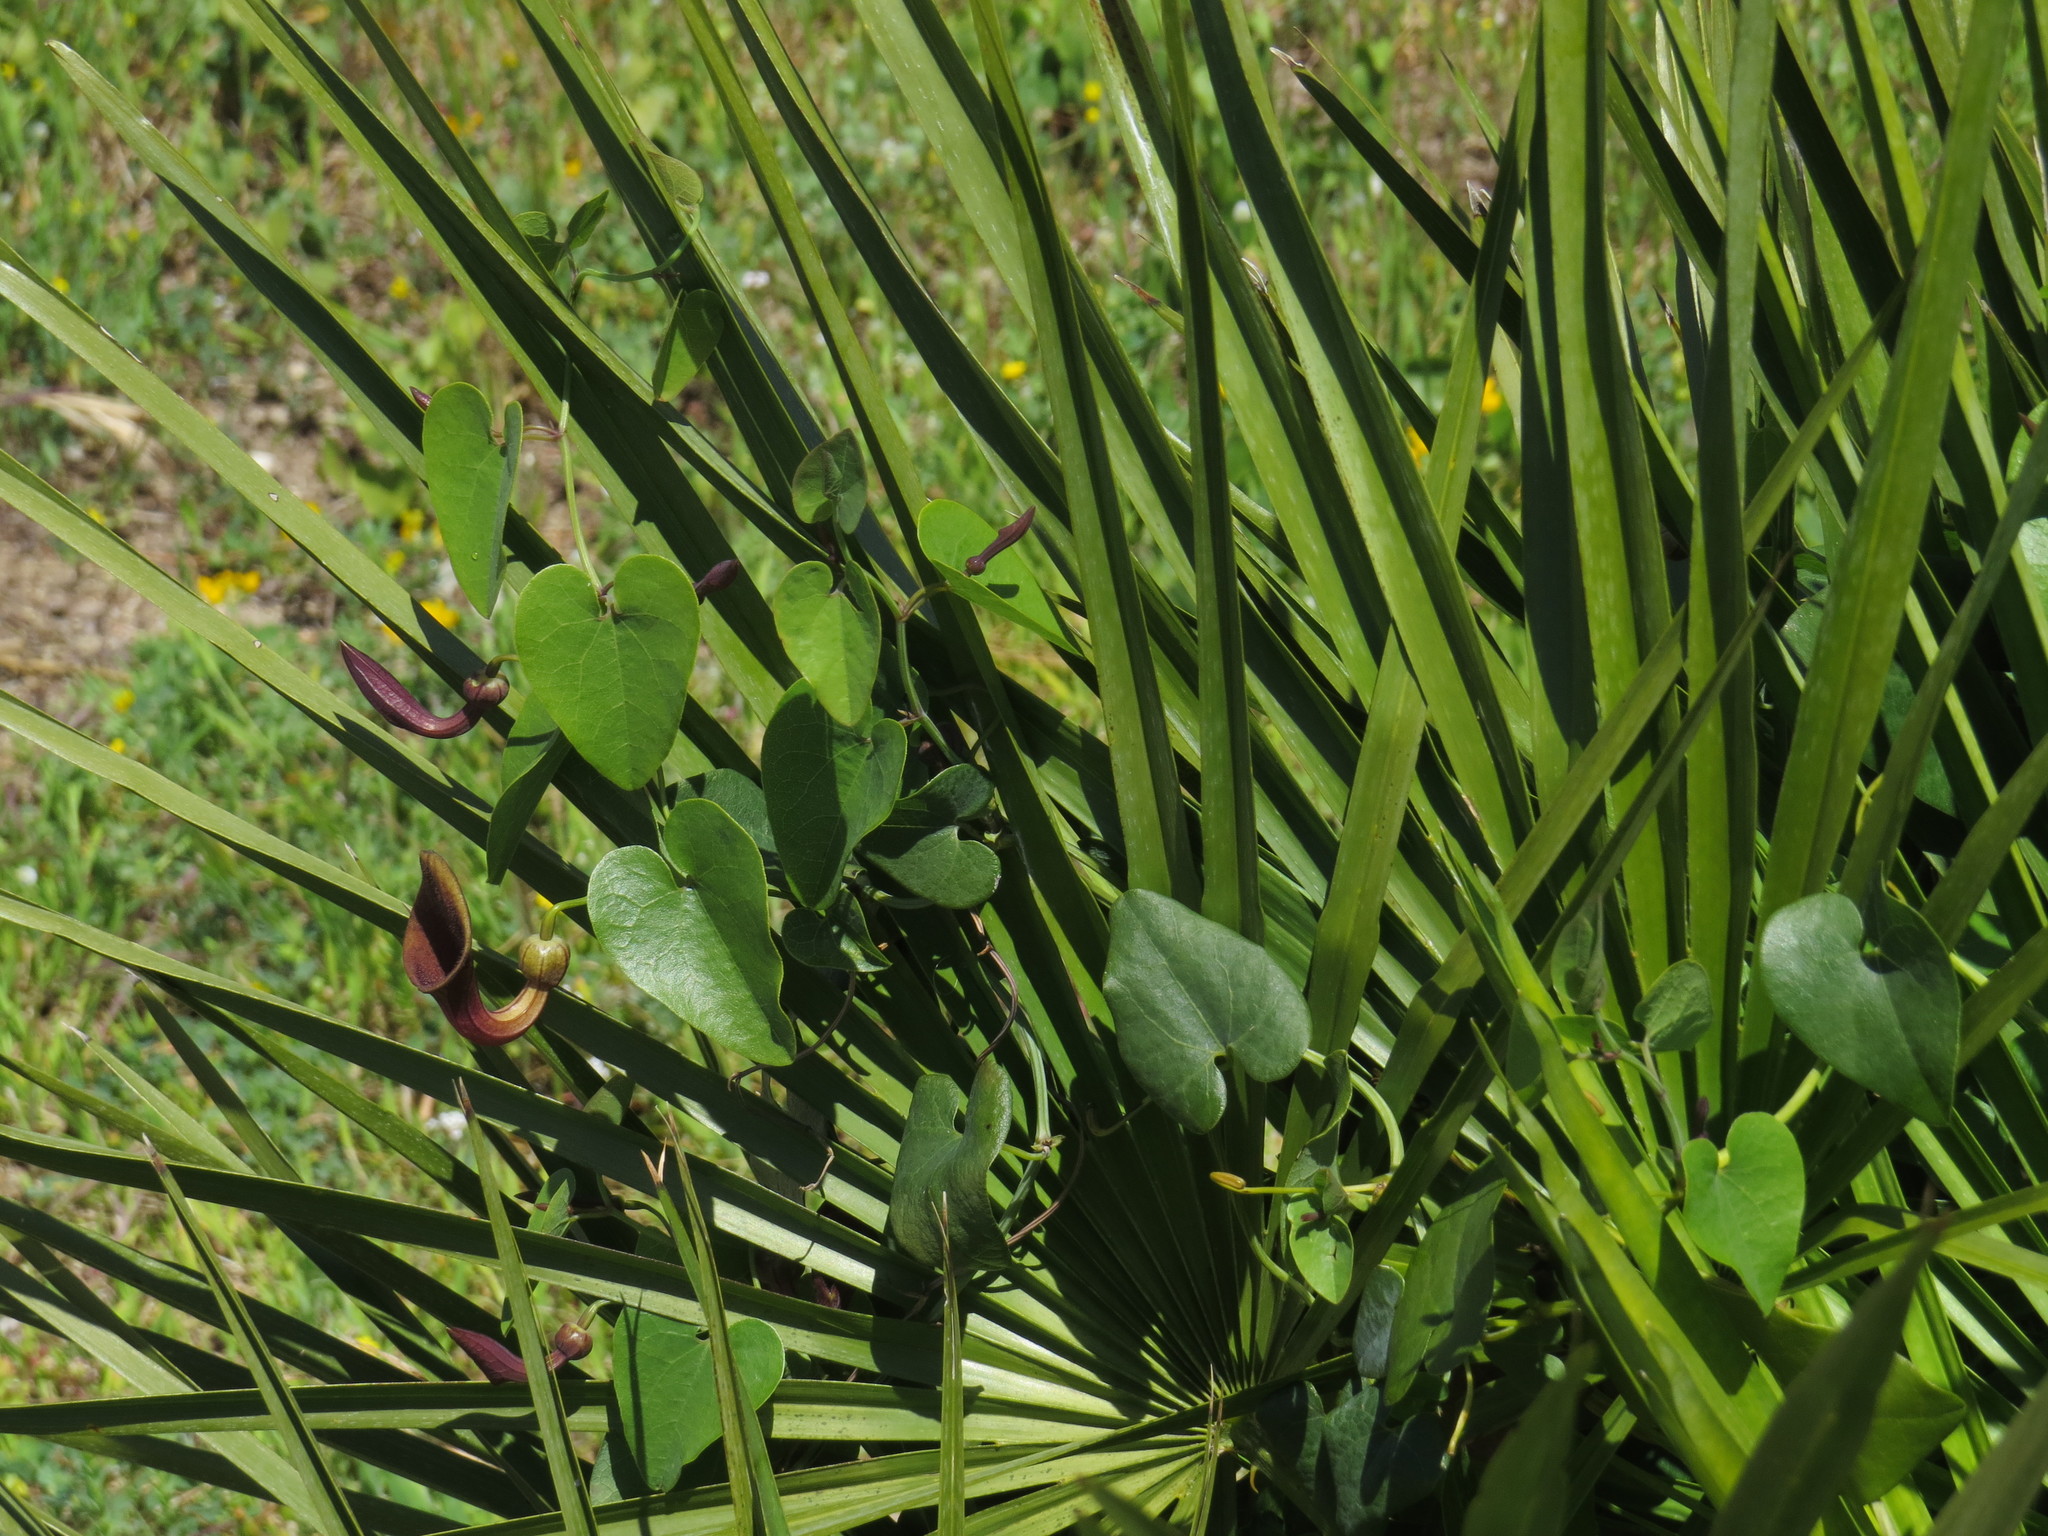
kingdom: Plantae
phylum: Tracheophyta
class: Magnoliopsida
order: Piperales
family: Aristolochiaceae
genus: Aristolochia
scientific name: Aristolochia baetica
